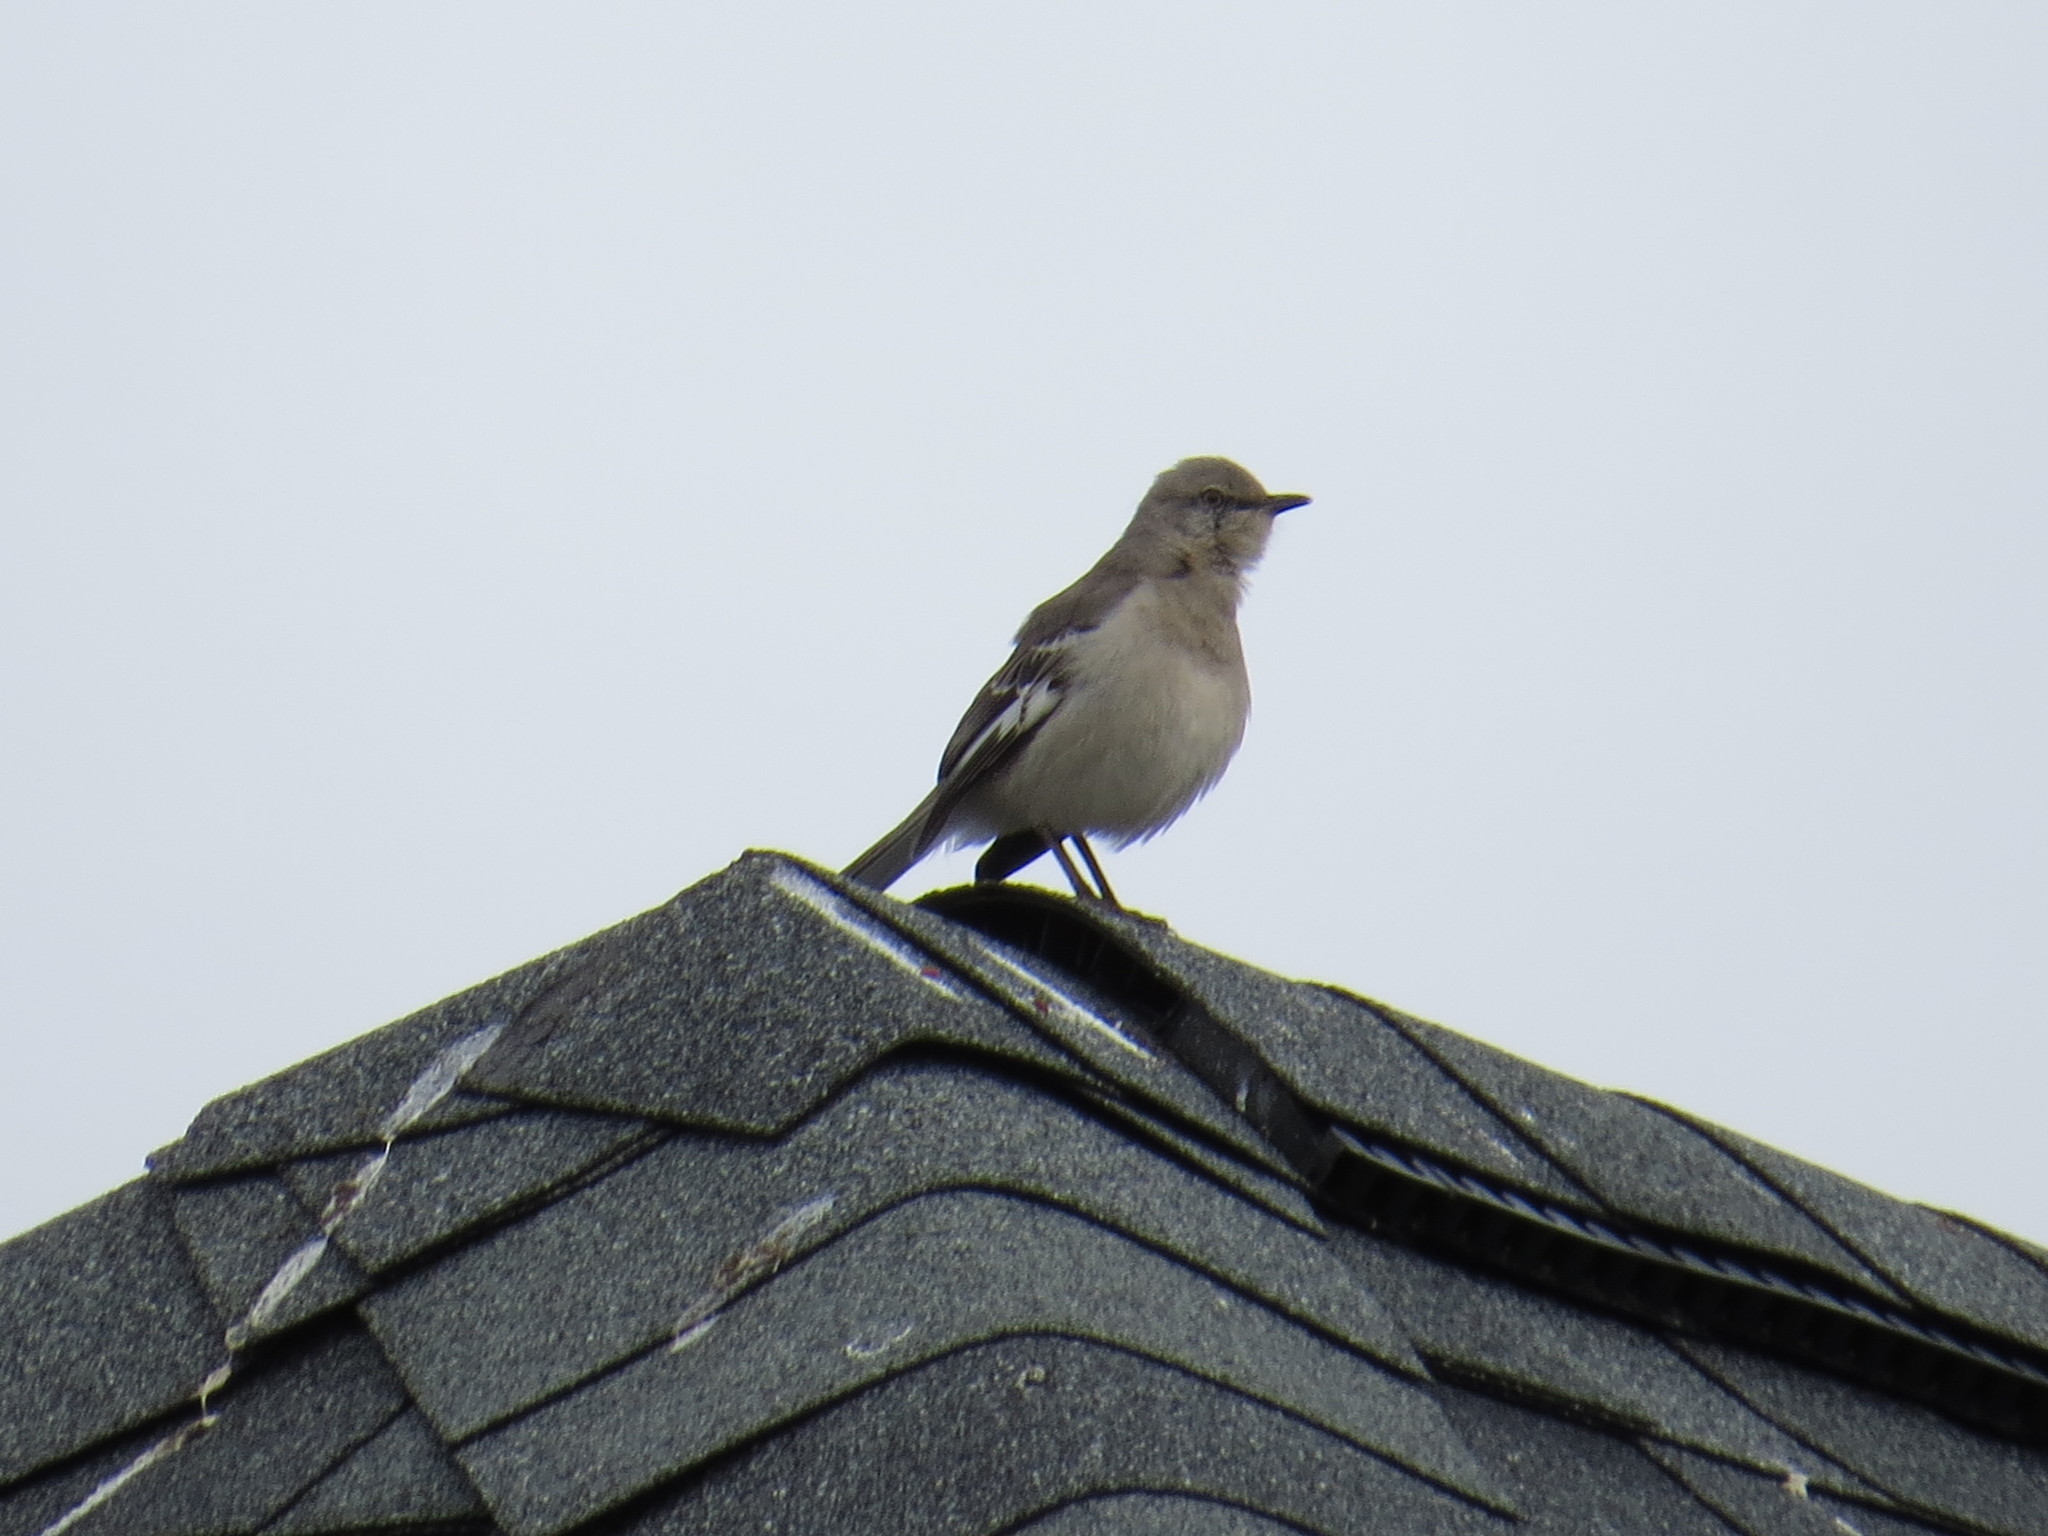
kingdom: Animalia
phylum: Chordata
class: Aves
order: Passeriformes
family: Mimidae
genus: Mimus
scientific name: Mimus polyglottos
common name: Northern mockingbird
